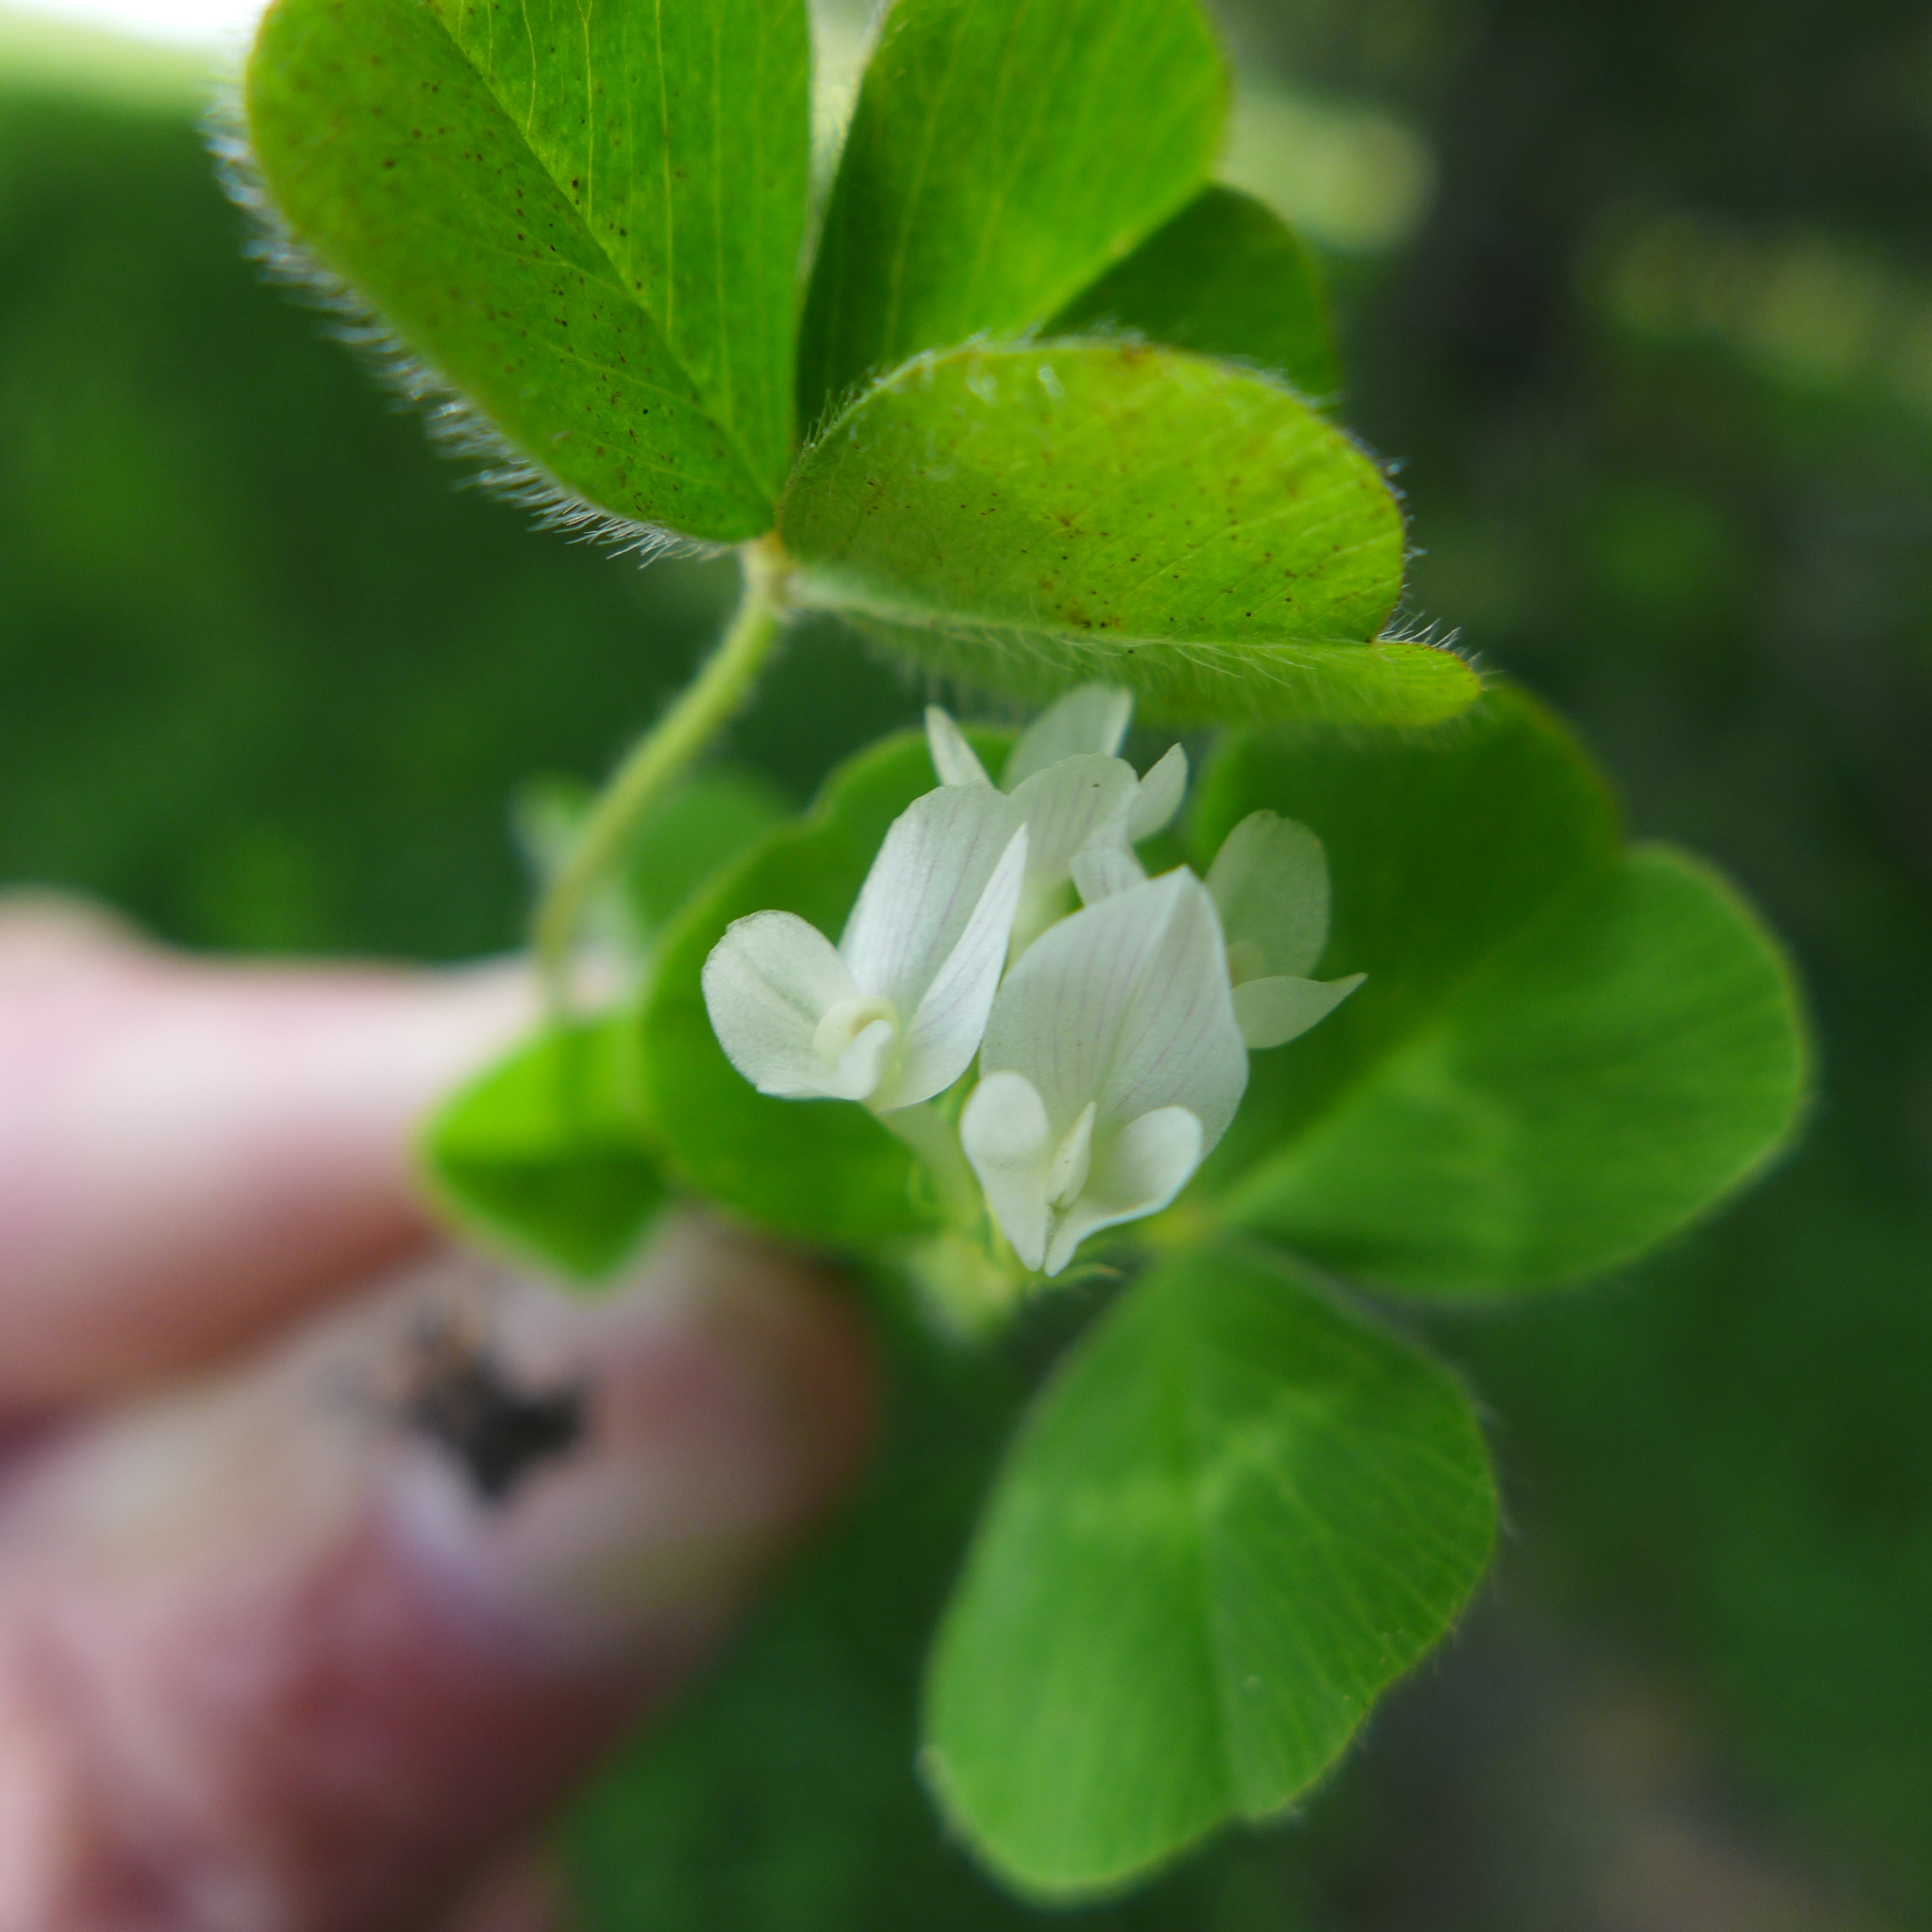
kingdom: Plantae
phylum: Tracheophyta
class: Magnoliopsida
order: Fabales
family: Fabaceae
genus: Trifolium
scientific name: Trifolium subterraneum
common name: Subterranean clover
